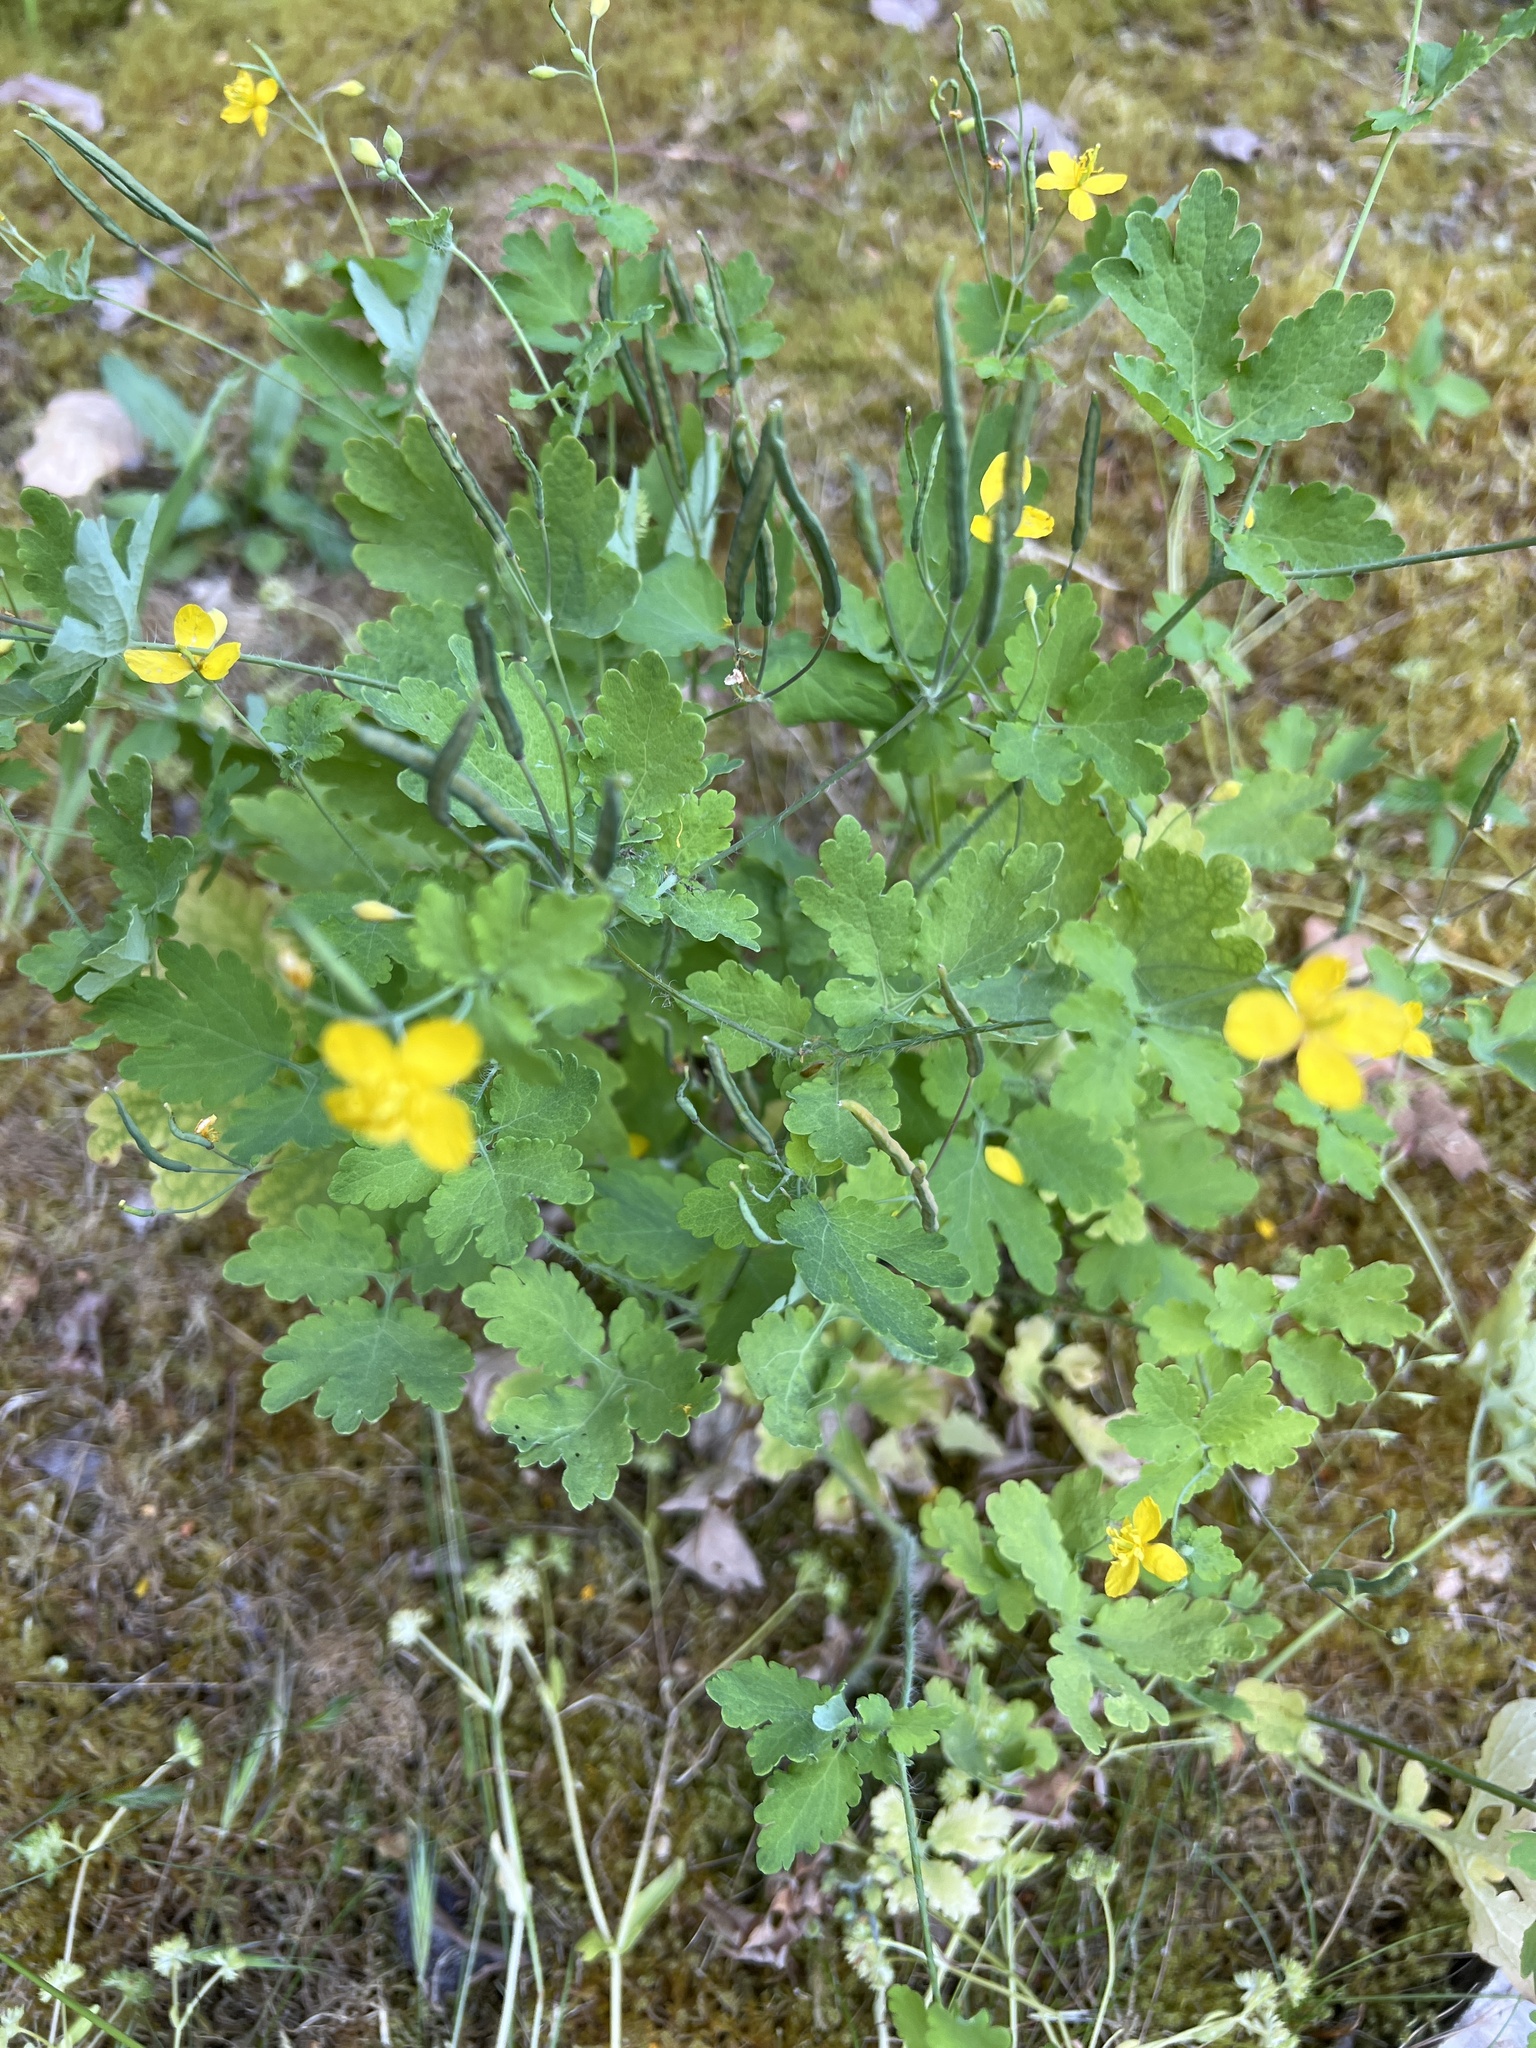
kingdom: Plantae
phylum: Tracheophyta
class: Magnoliopsida
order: Ranunculales
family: Papaveraceae
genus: Chelidonium
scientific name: Chelidonium majus
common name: Greater celandine
